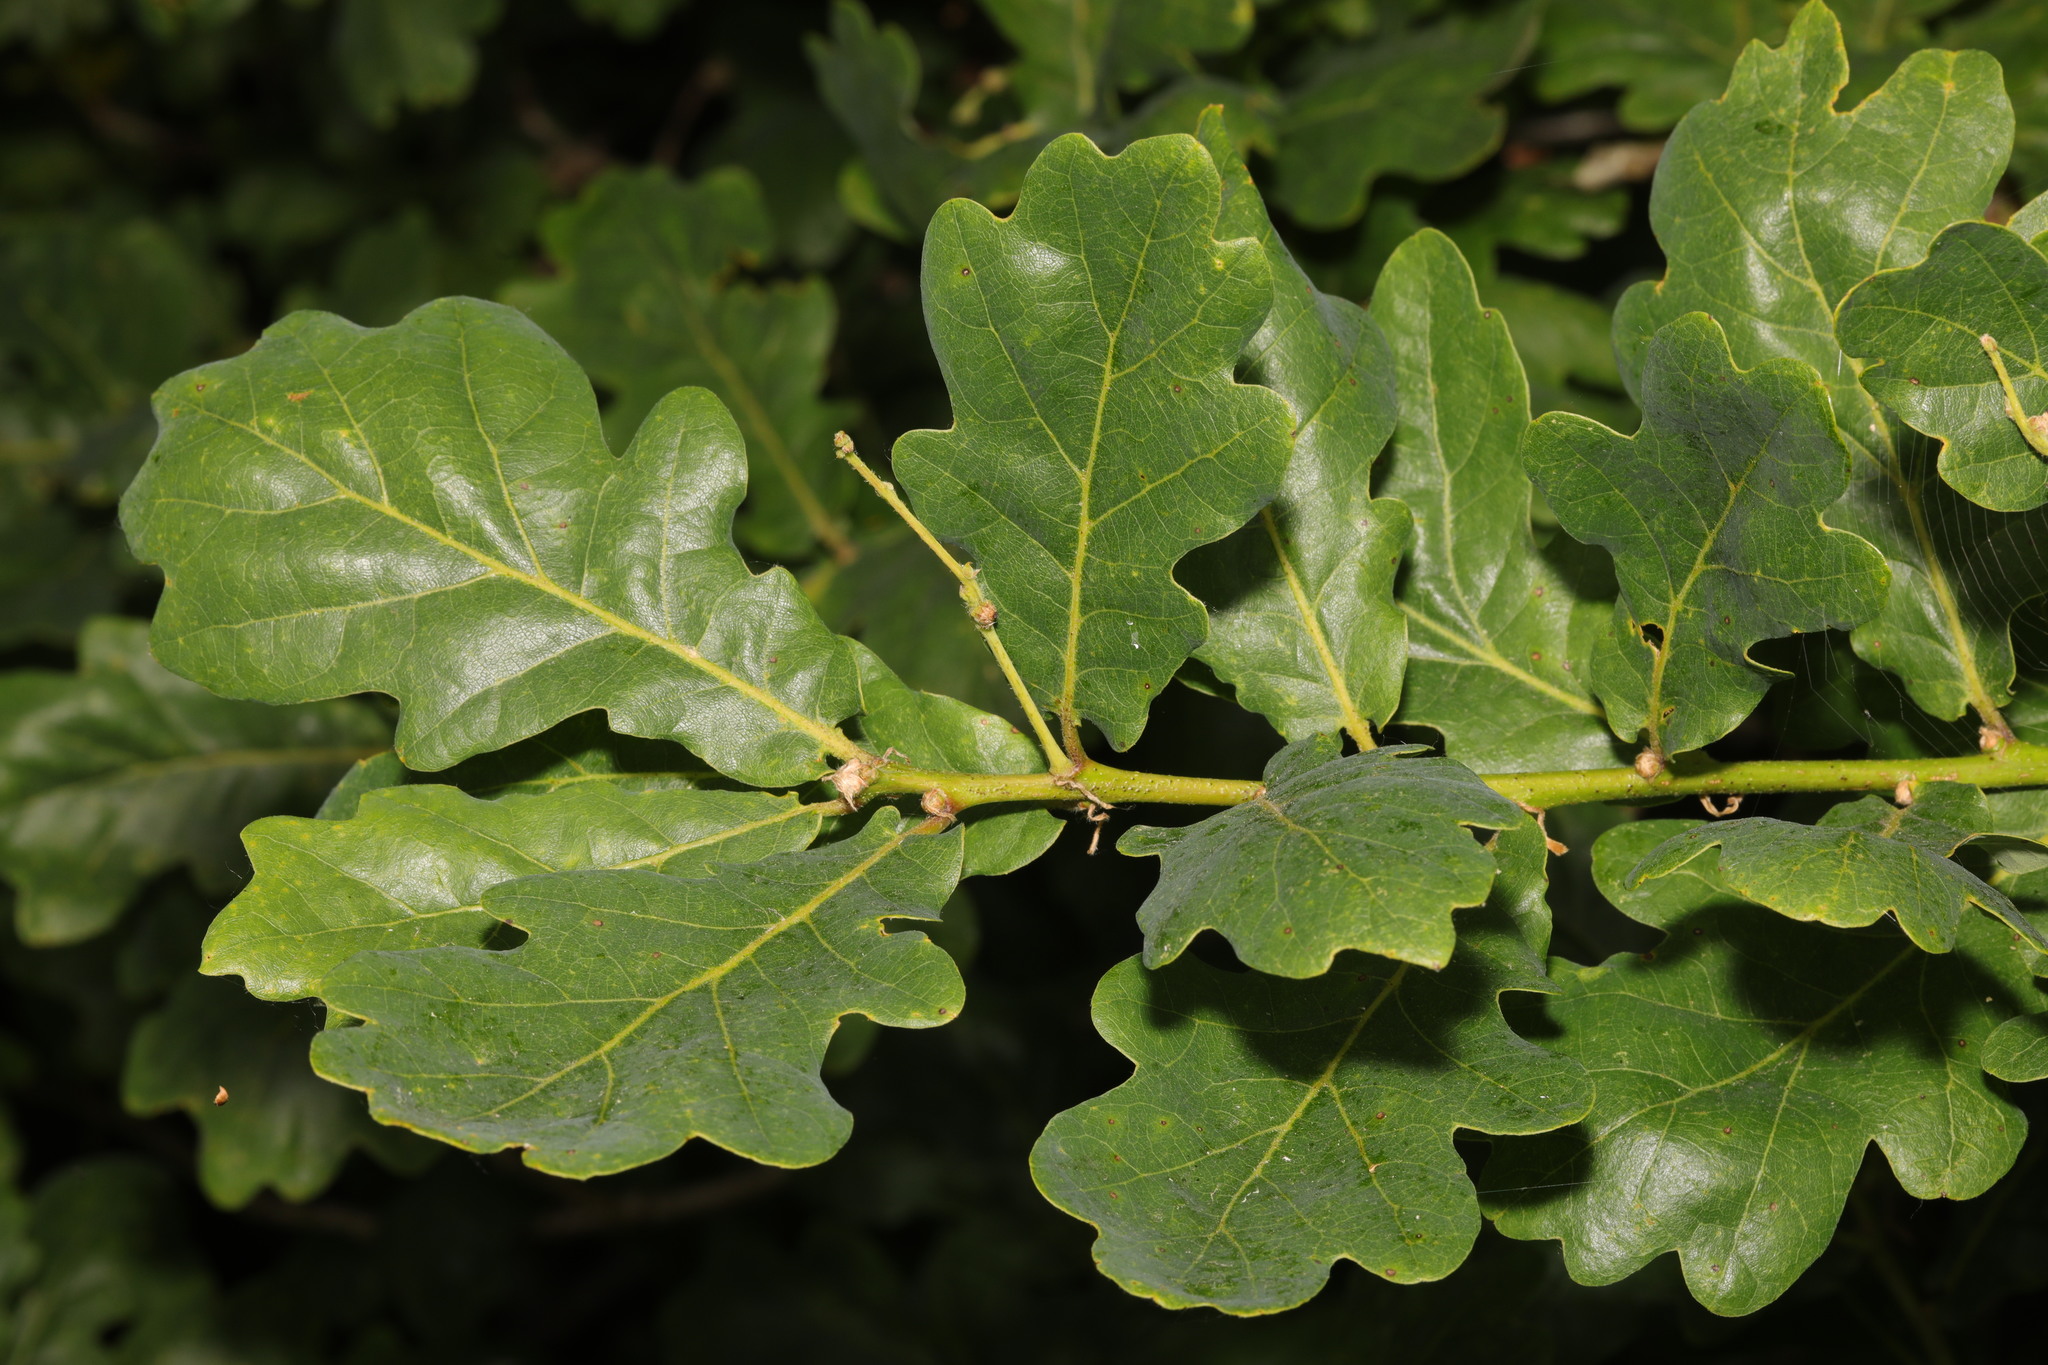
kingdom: Plantae
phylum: Tracheophyta
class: Magnoliopsida
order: Fagales
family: Fagaceae
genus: Quercus
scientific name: Quercus robur
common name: Pedunculate oak
